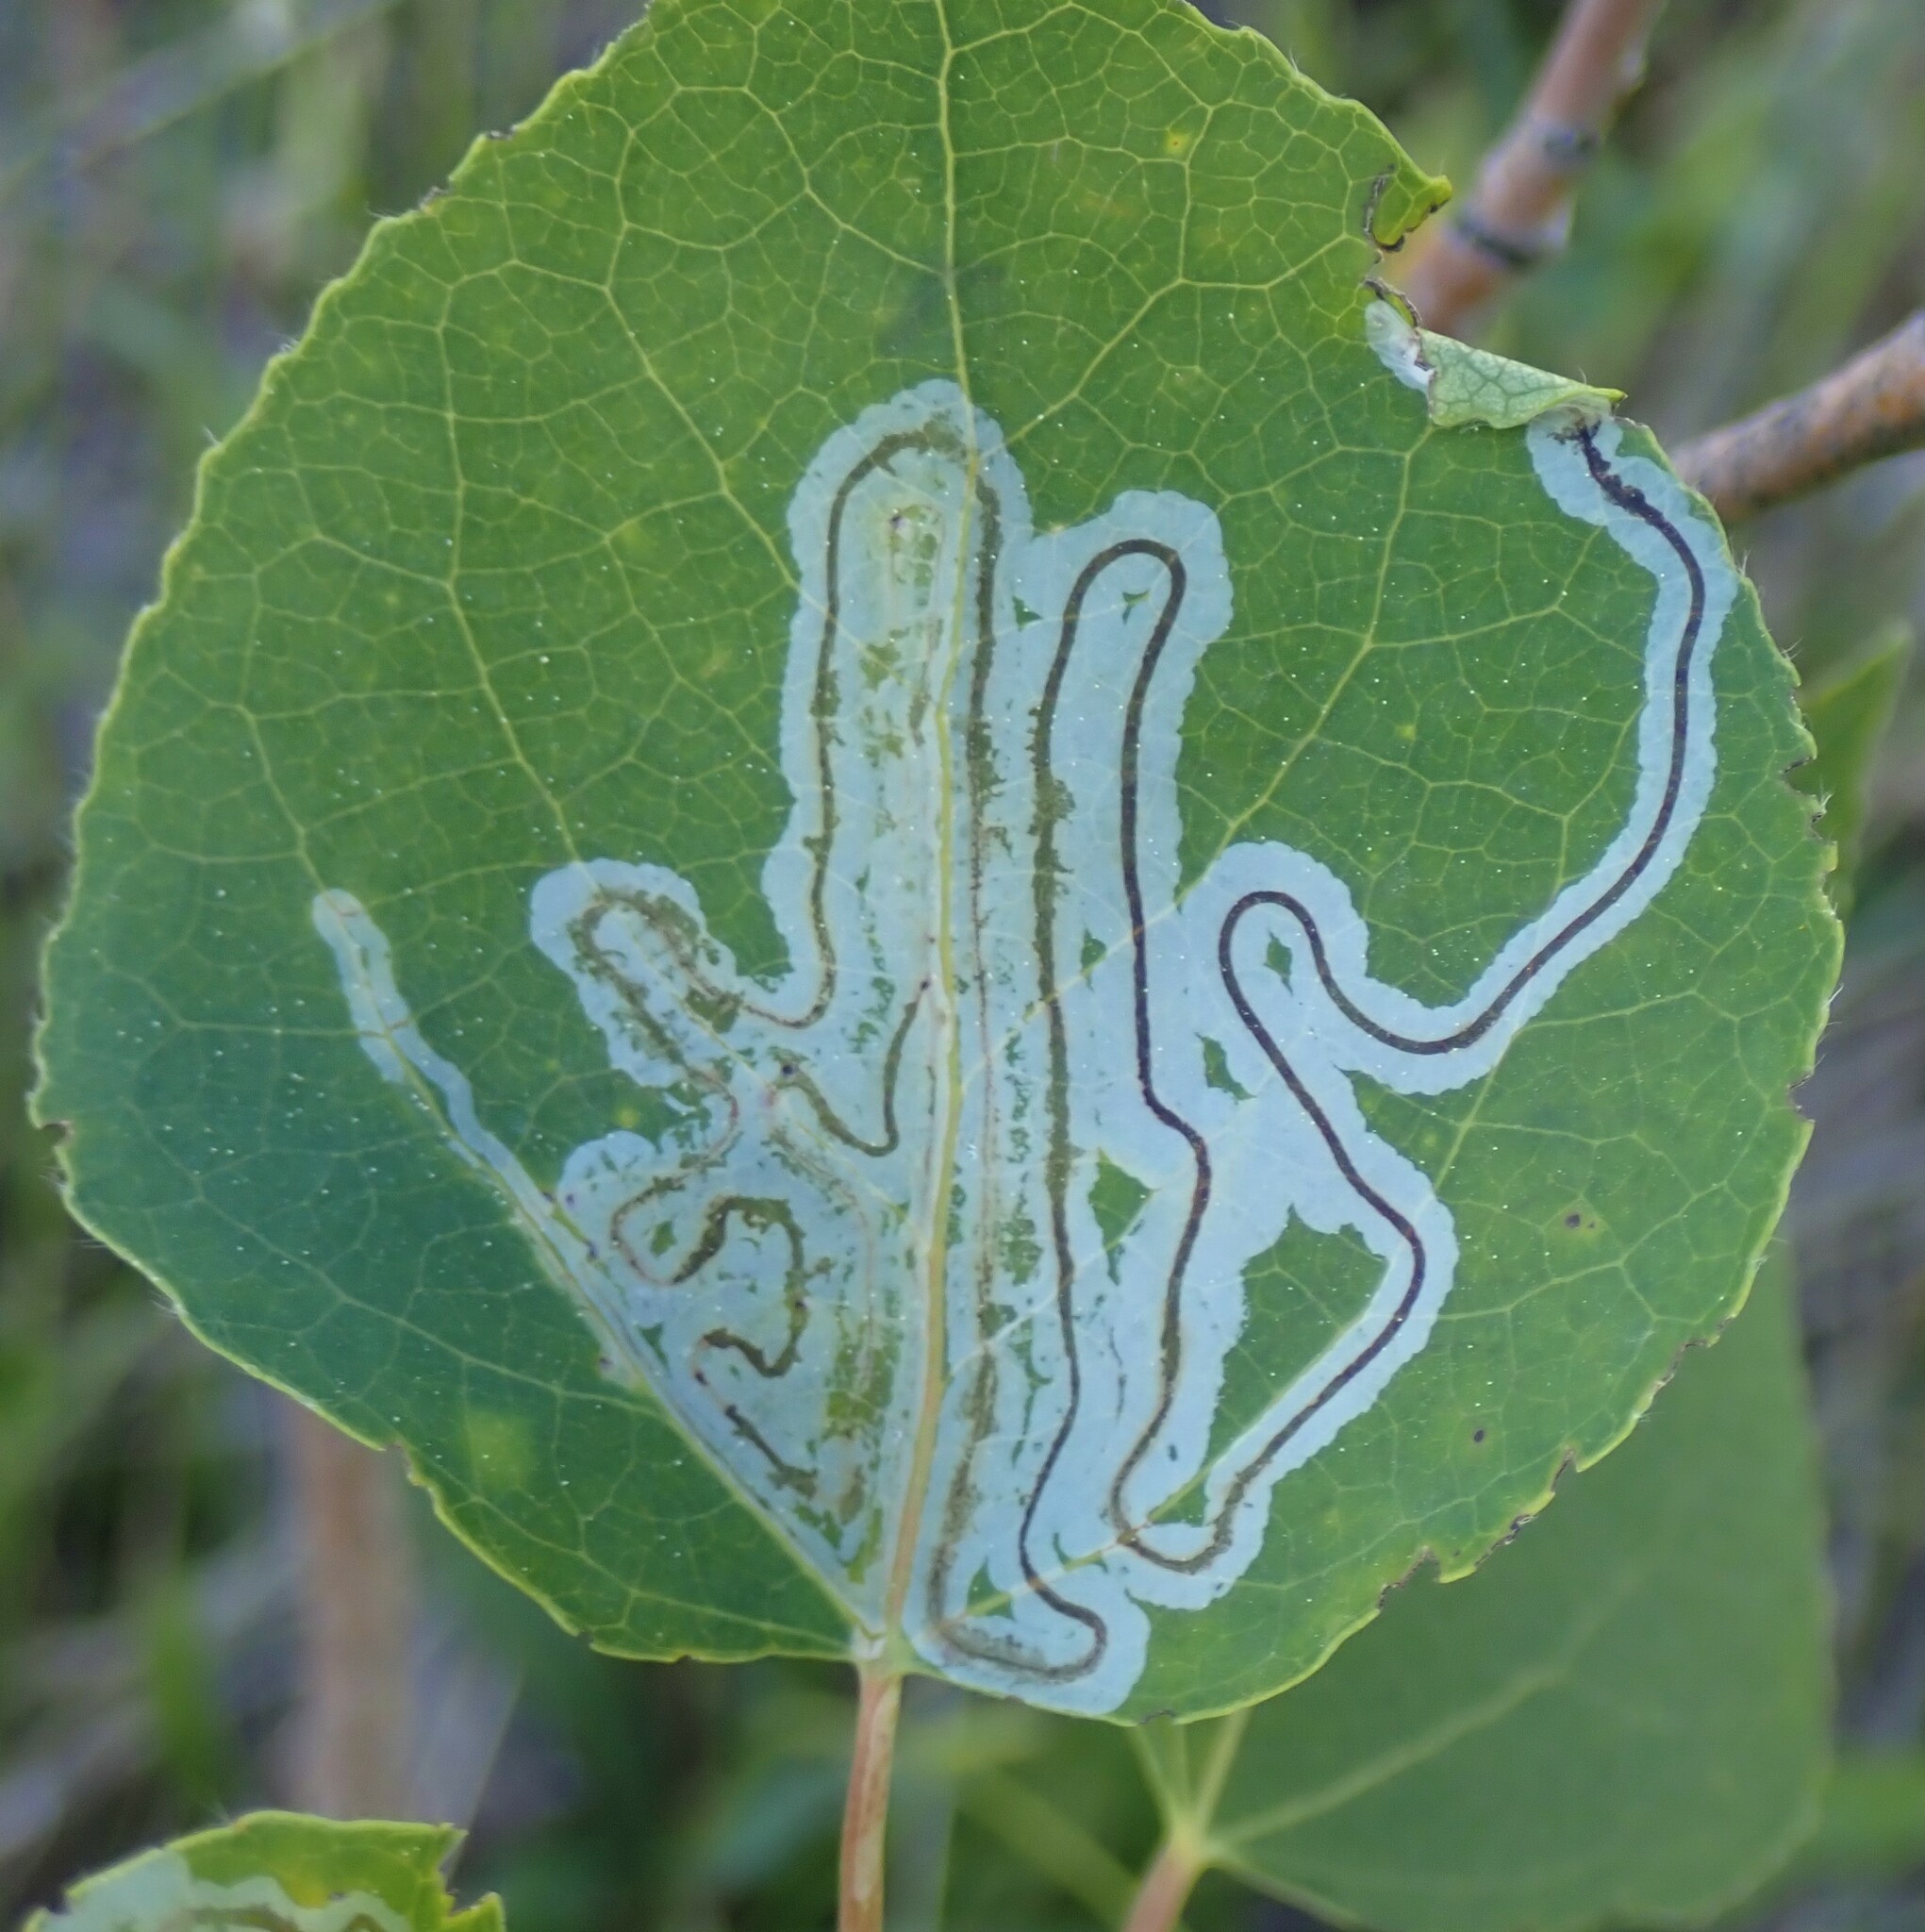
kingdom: Animalia
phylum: Arthropoda
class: Insecta
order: Lepidoptera
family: Gracillariidae
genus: Phyllocnistis
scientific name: Phyllocnistis populiella
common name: Aspen serpentine leafminer moth
